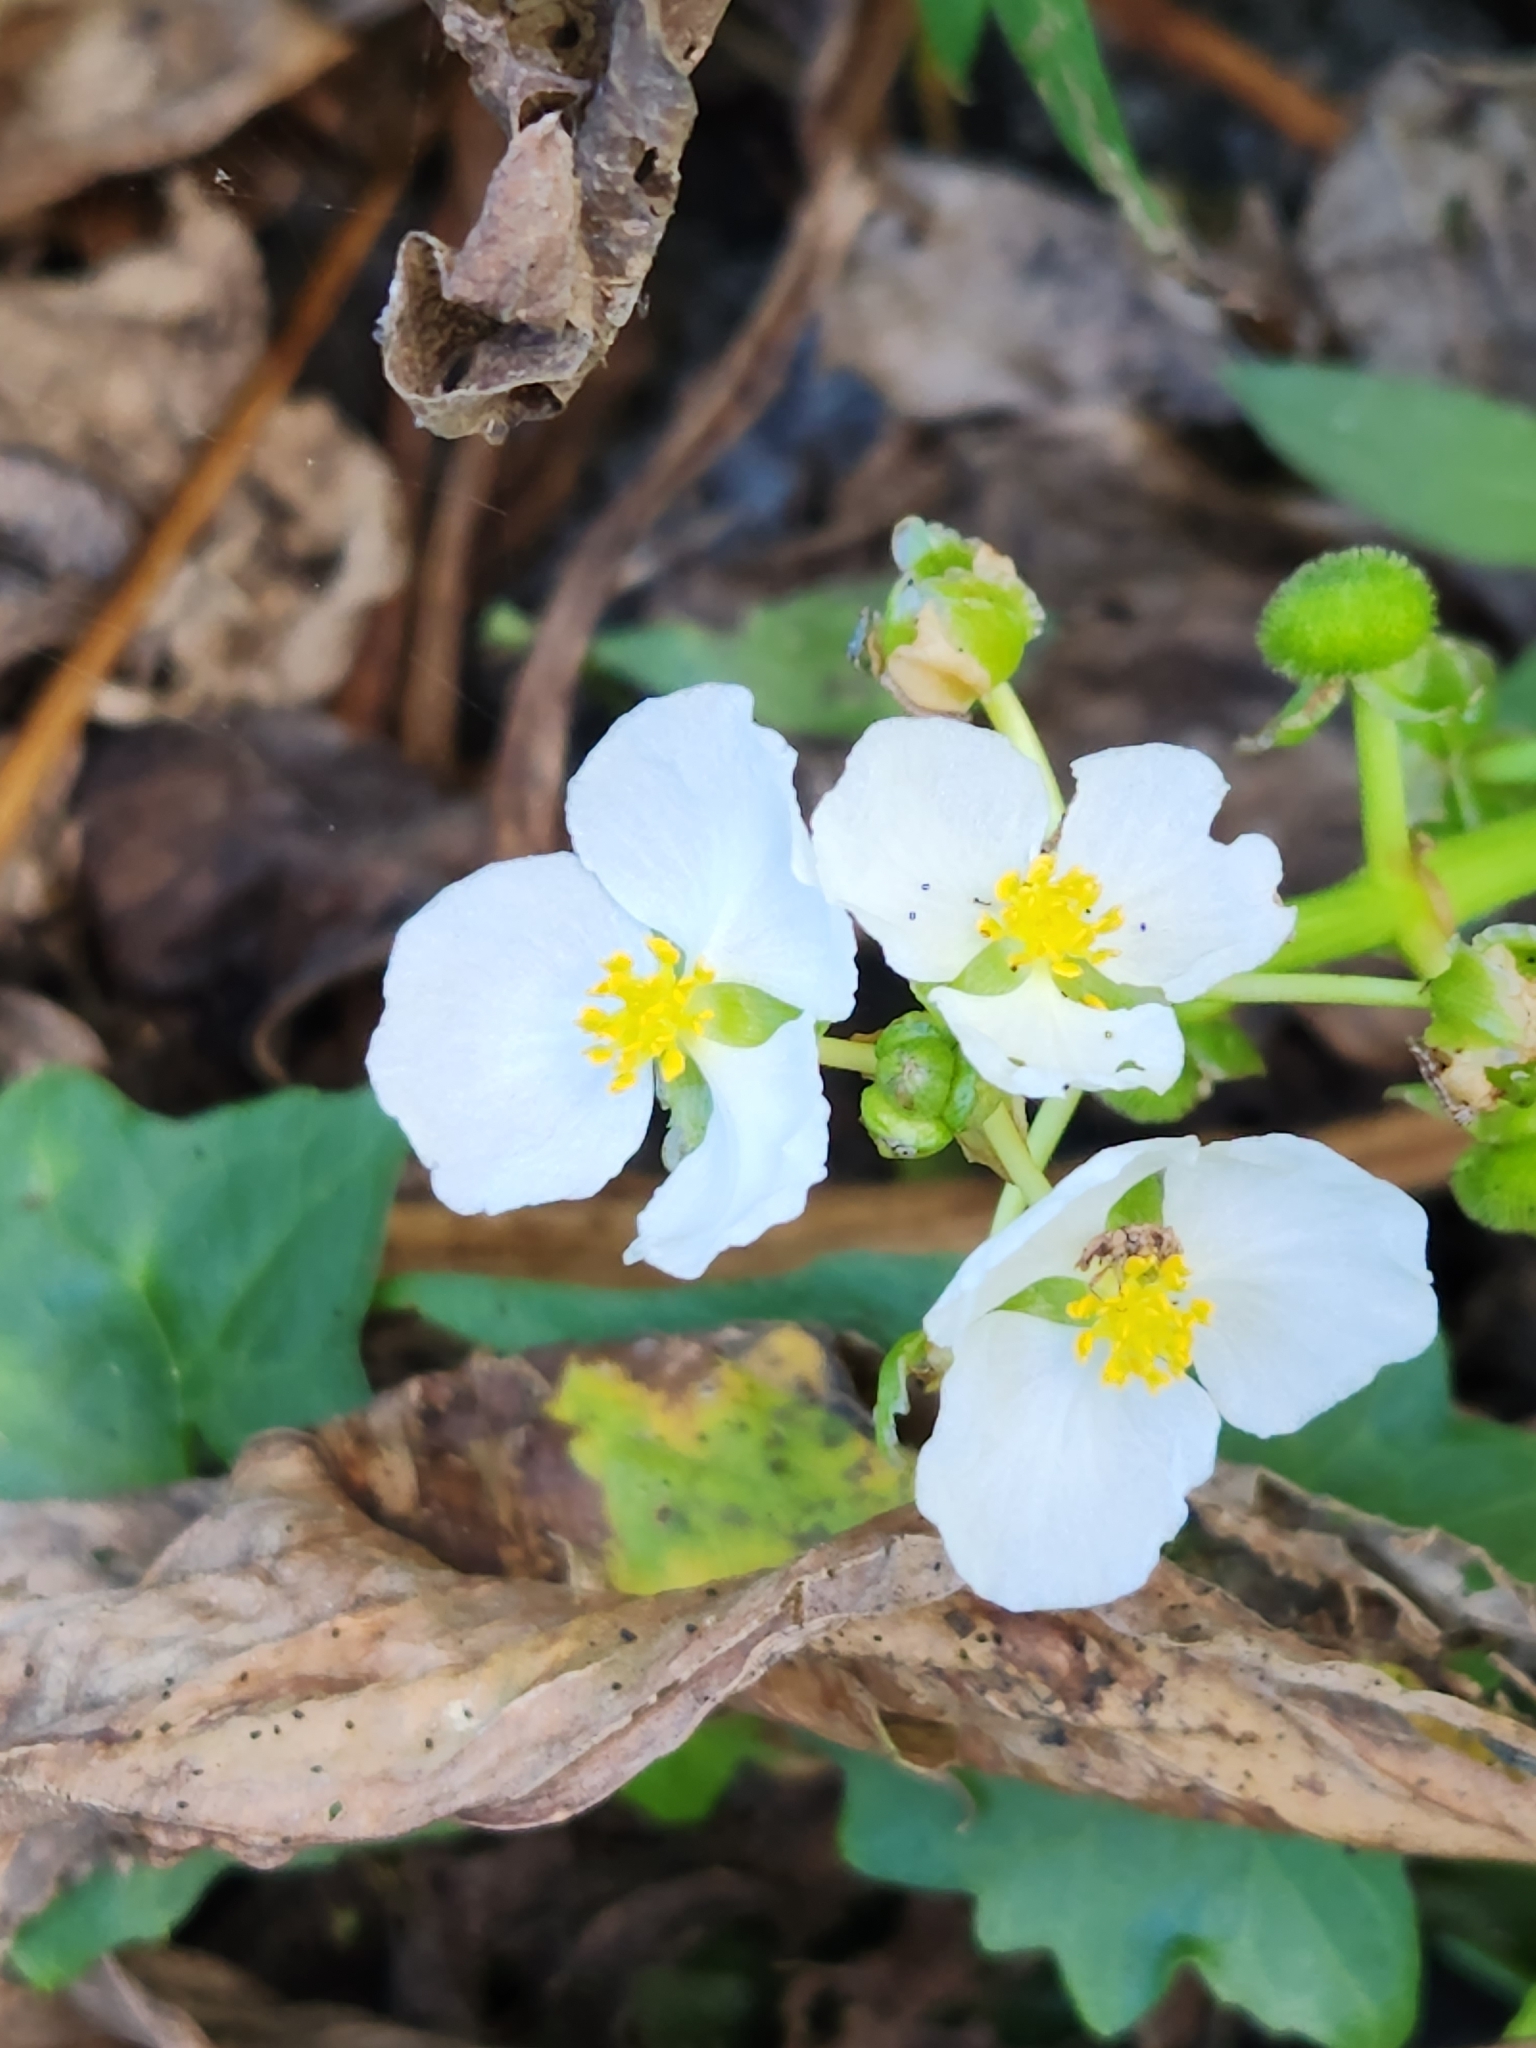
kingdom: Plantae
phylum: Tracheophyta
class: Liliopsida
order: Alismatales
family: Alismataceae
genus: Sagittaria
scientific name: Sagittaria platyphylla
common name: Broad-leaf arrowhead
